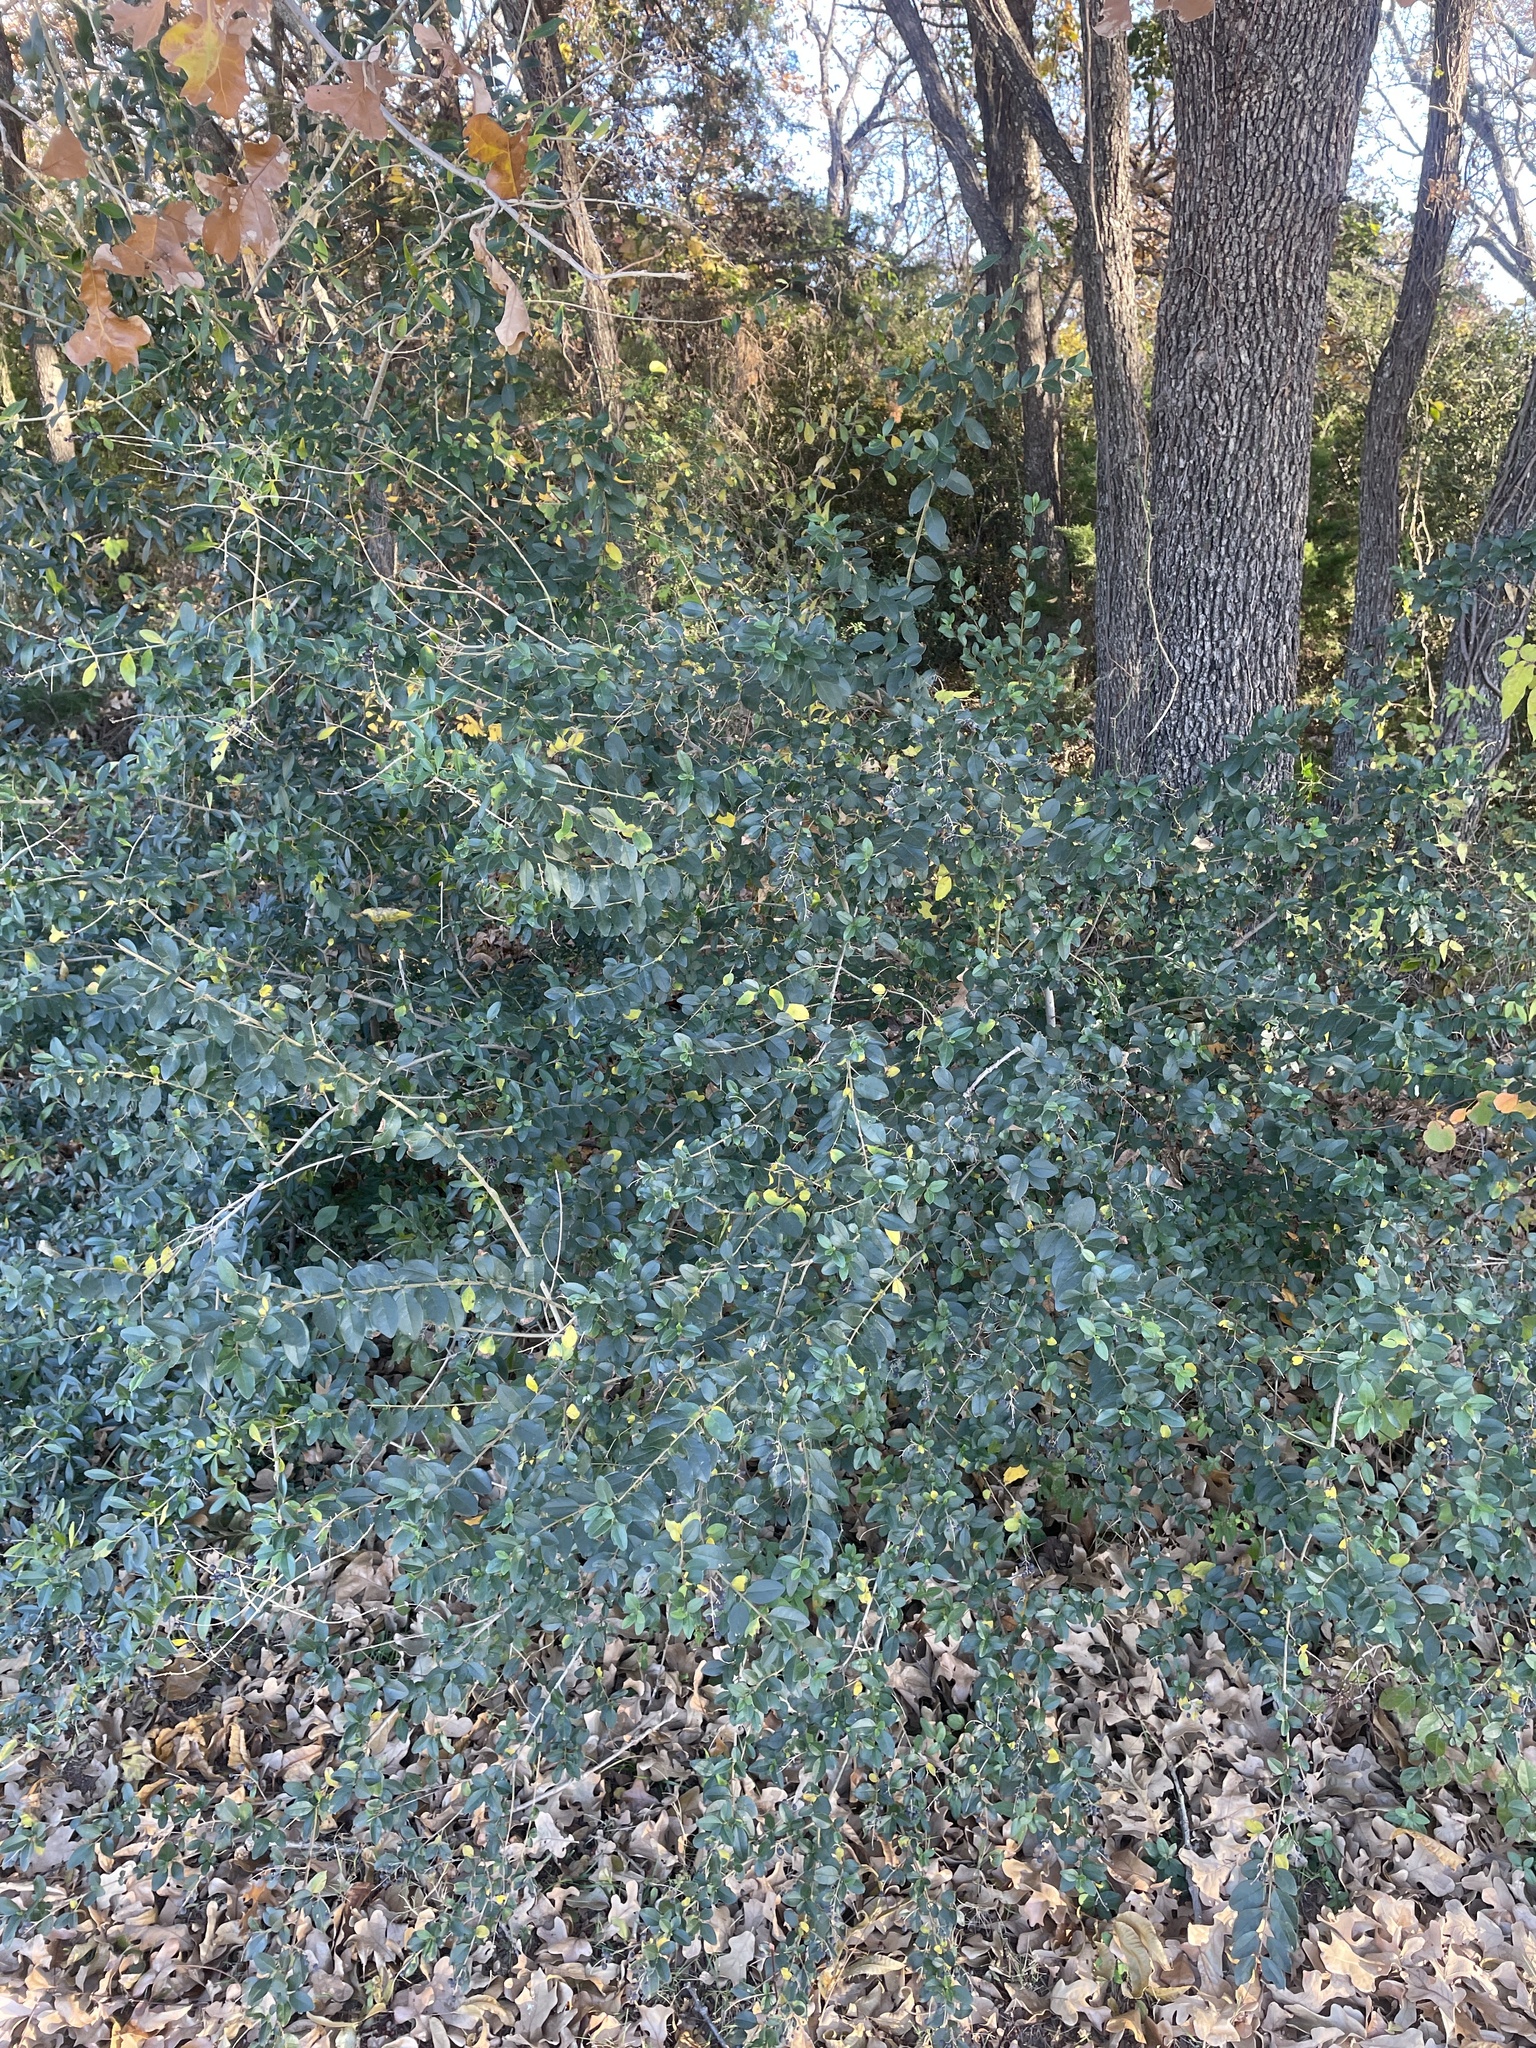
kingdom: Plantae
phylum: Tracheophyta
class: Magnoliopsida
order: Lamiales
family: Oleaceae
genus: Ligustrum
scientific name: Ligustrum sinense
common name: Chinese privet
